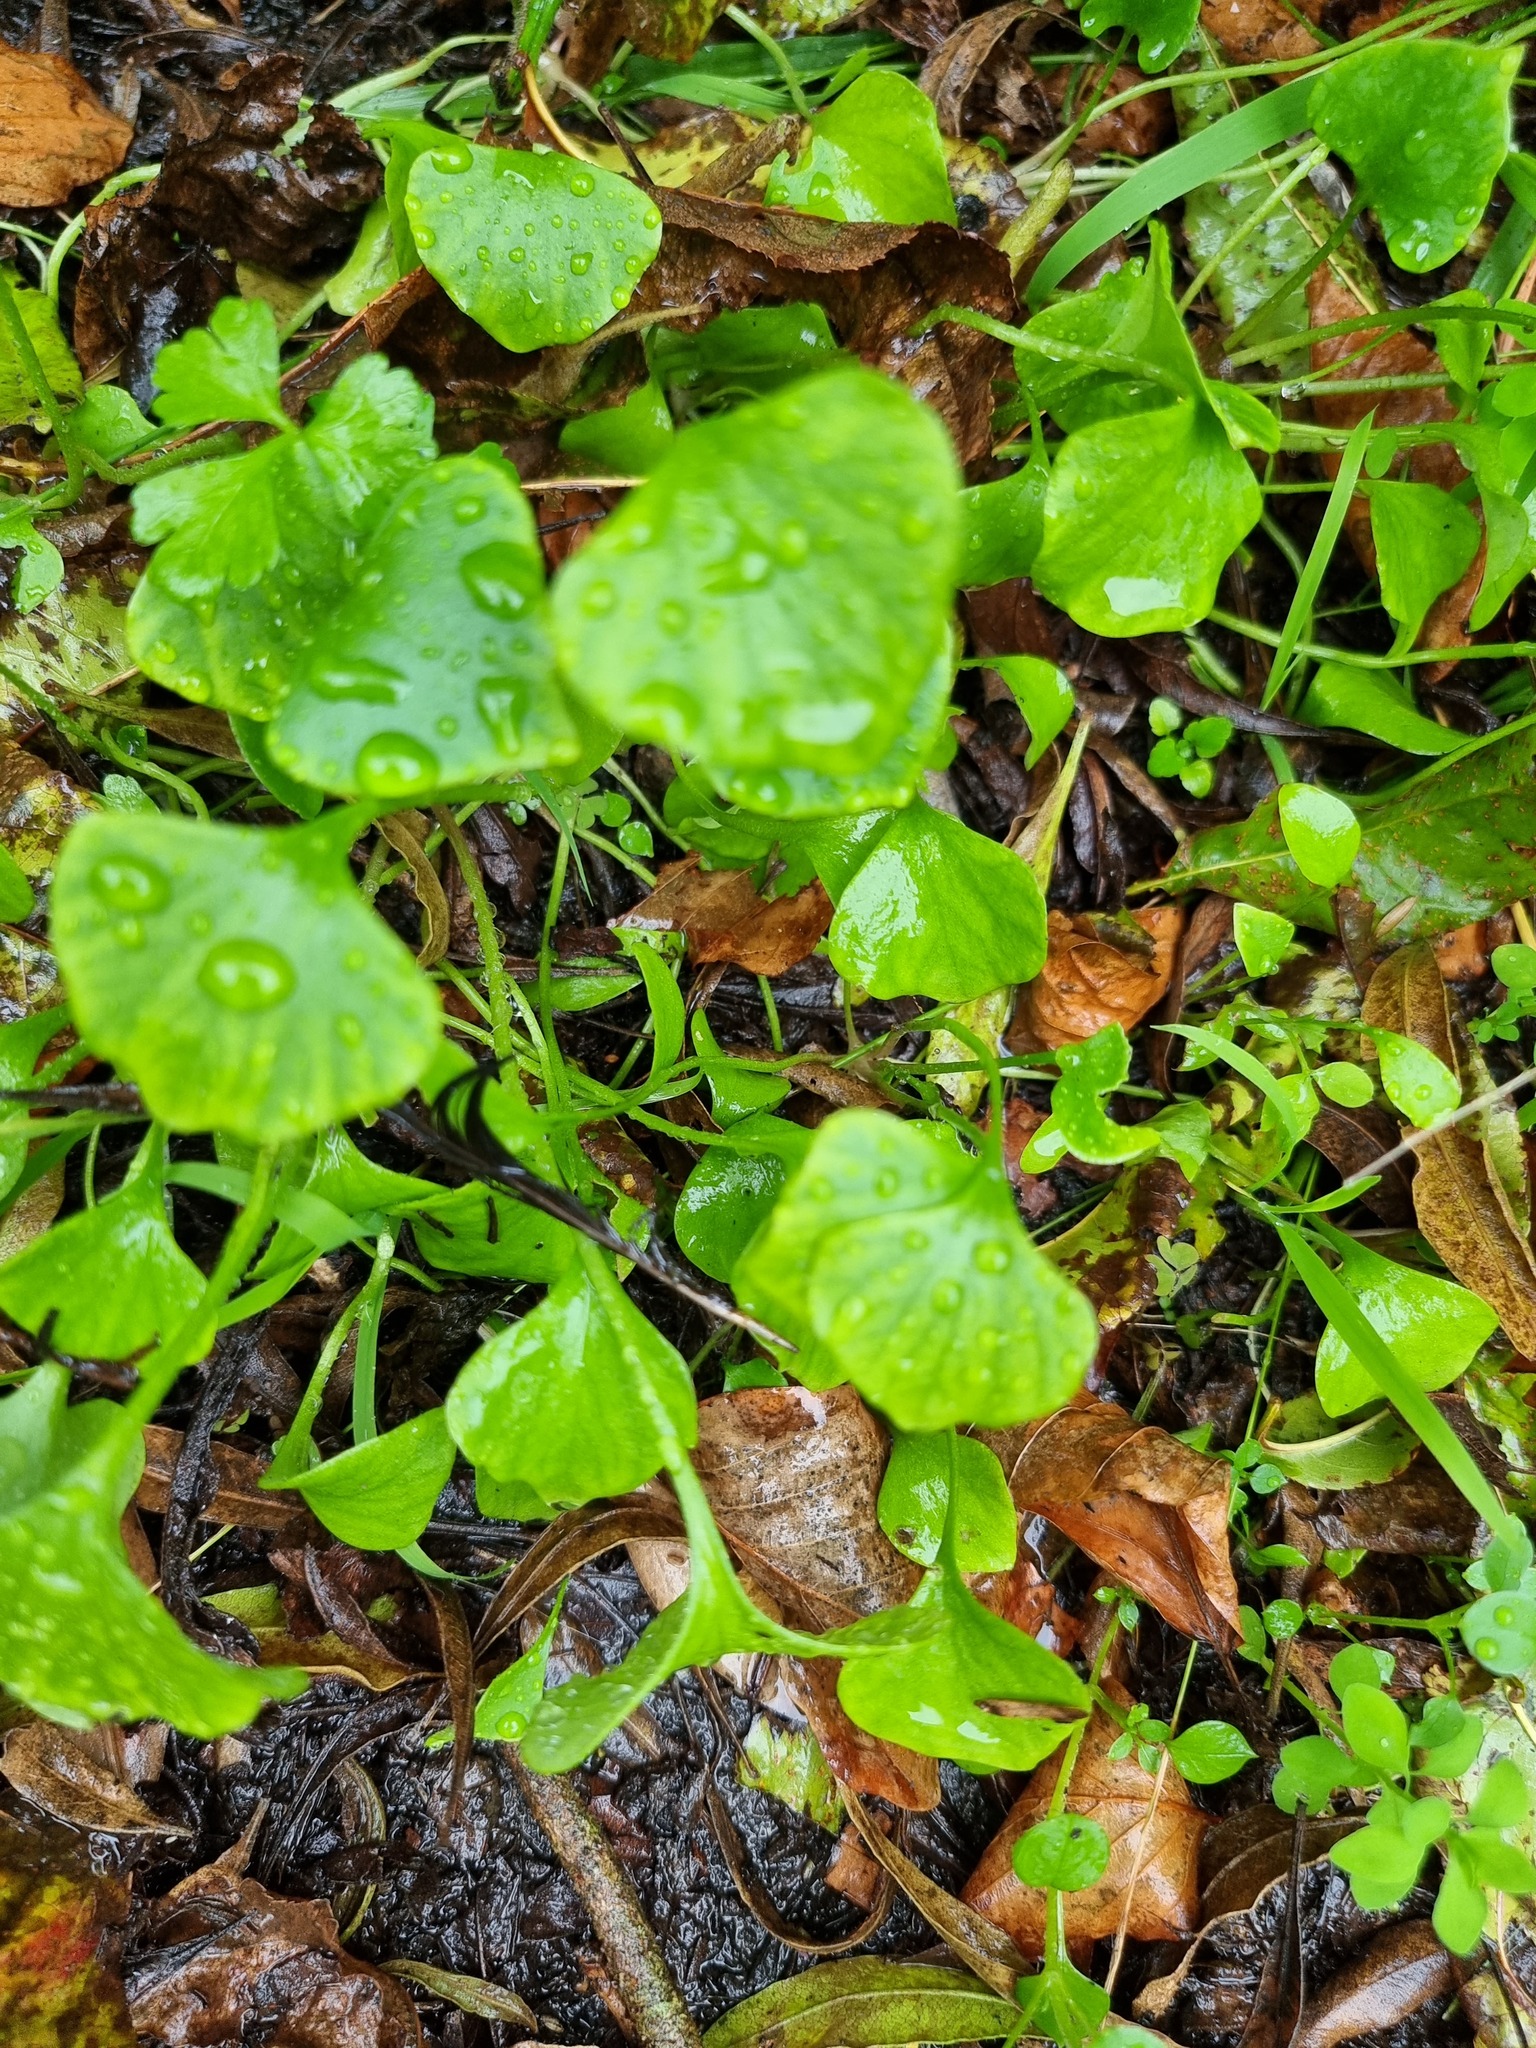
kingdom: Plantae
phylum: Tracheophyta
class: Magnoliopsida
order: Caryophyllales
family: Montiaceae
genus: Claytonia
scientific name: Claytonia perfoliata
